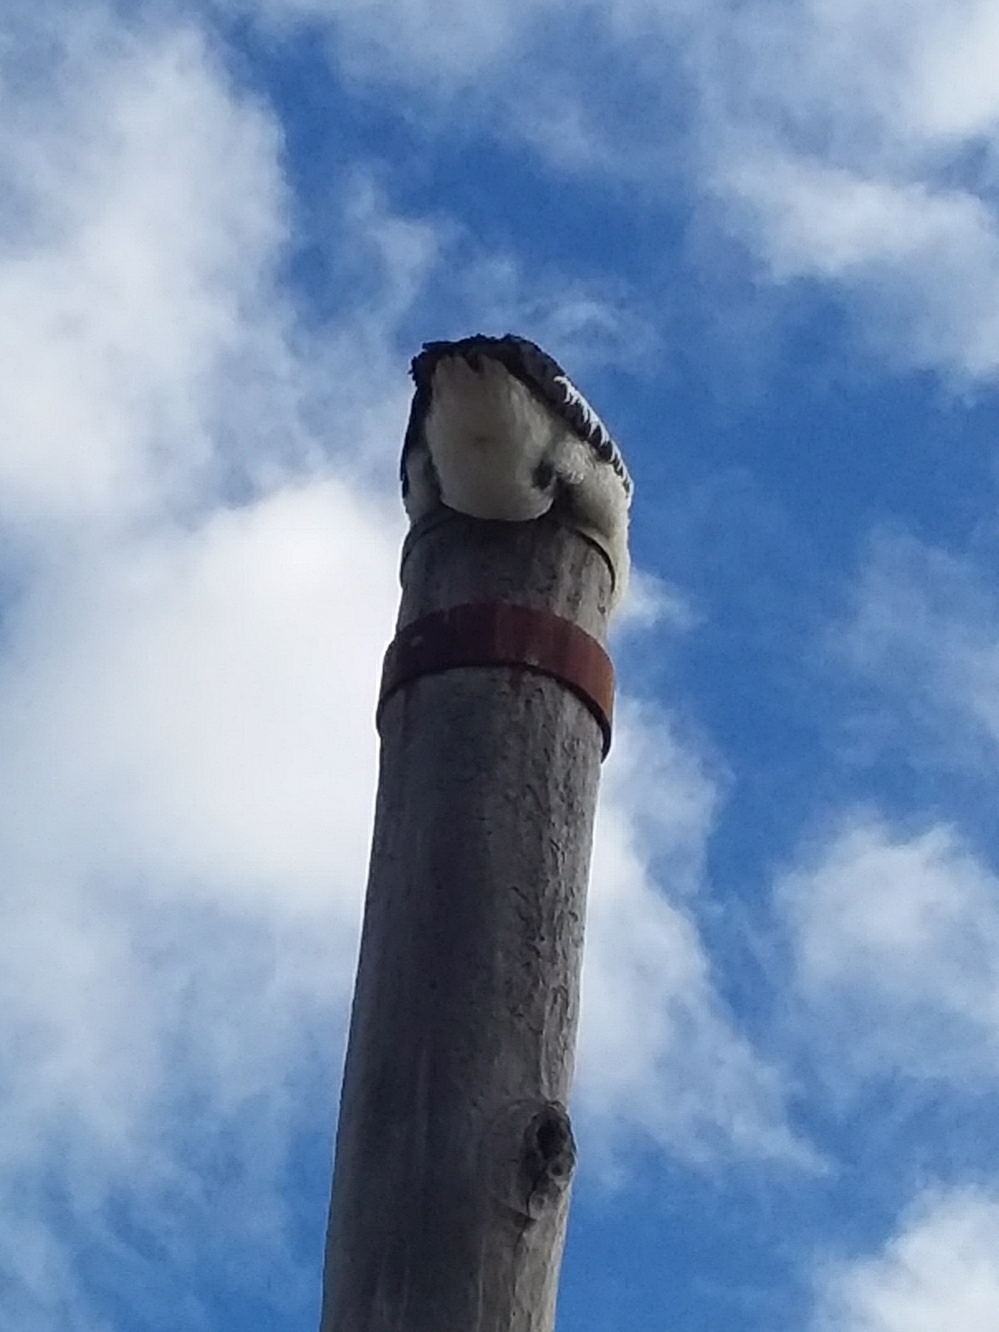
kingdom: Animalia
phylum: Chordata
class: Aves
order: Pelecaniformes
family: Pelecanidae
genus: Pelecanus
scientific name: Pelecanus conspicillatus
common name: Australian pelican
